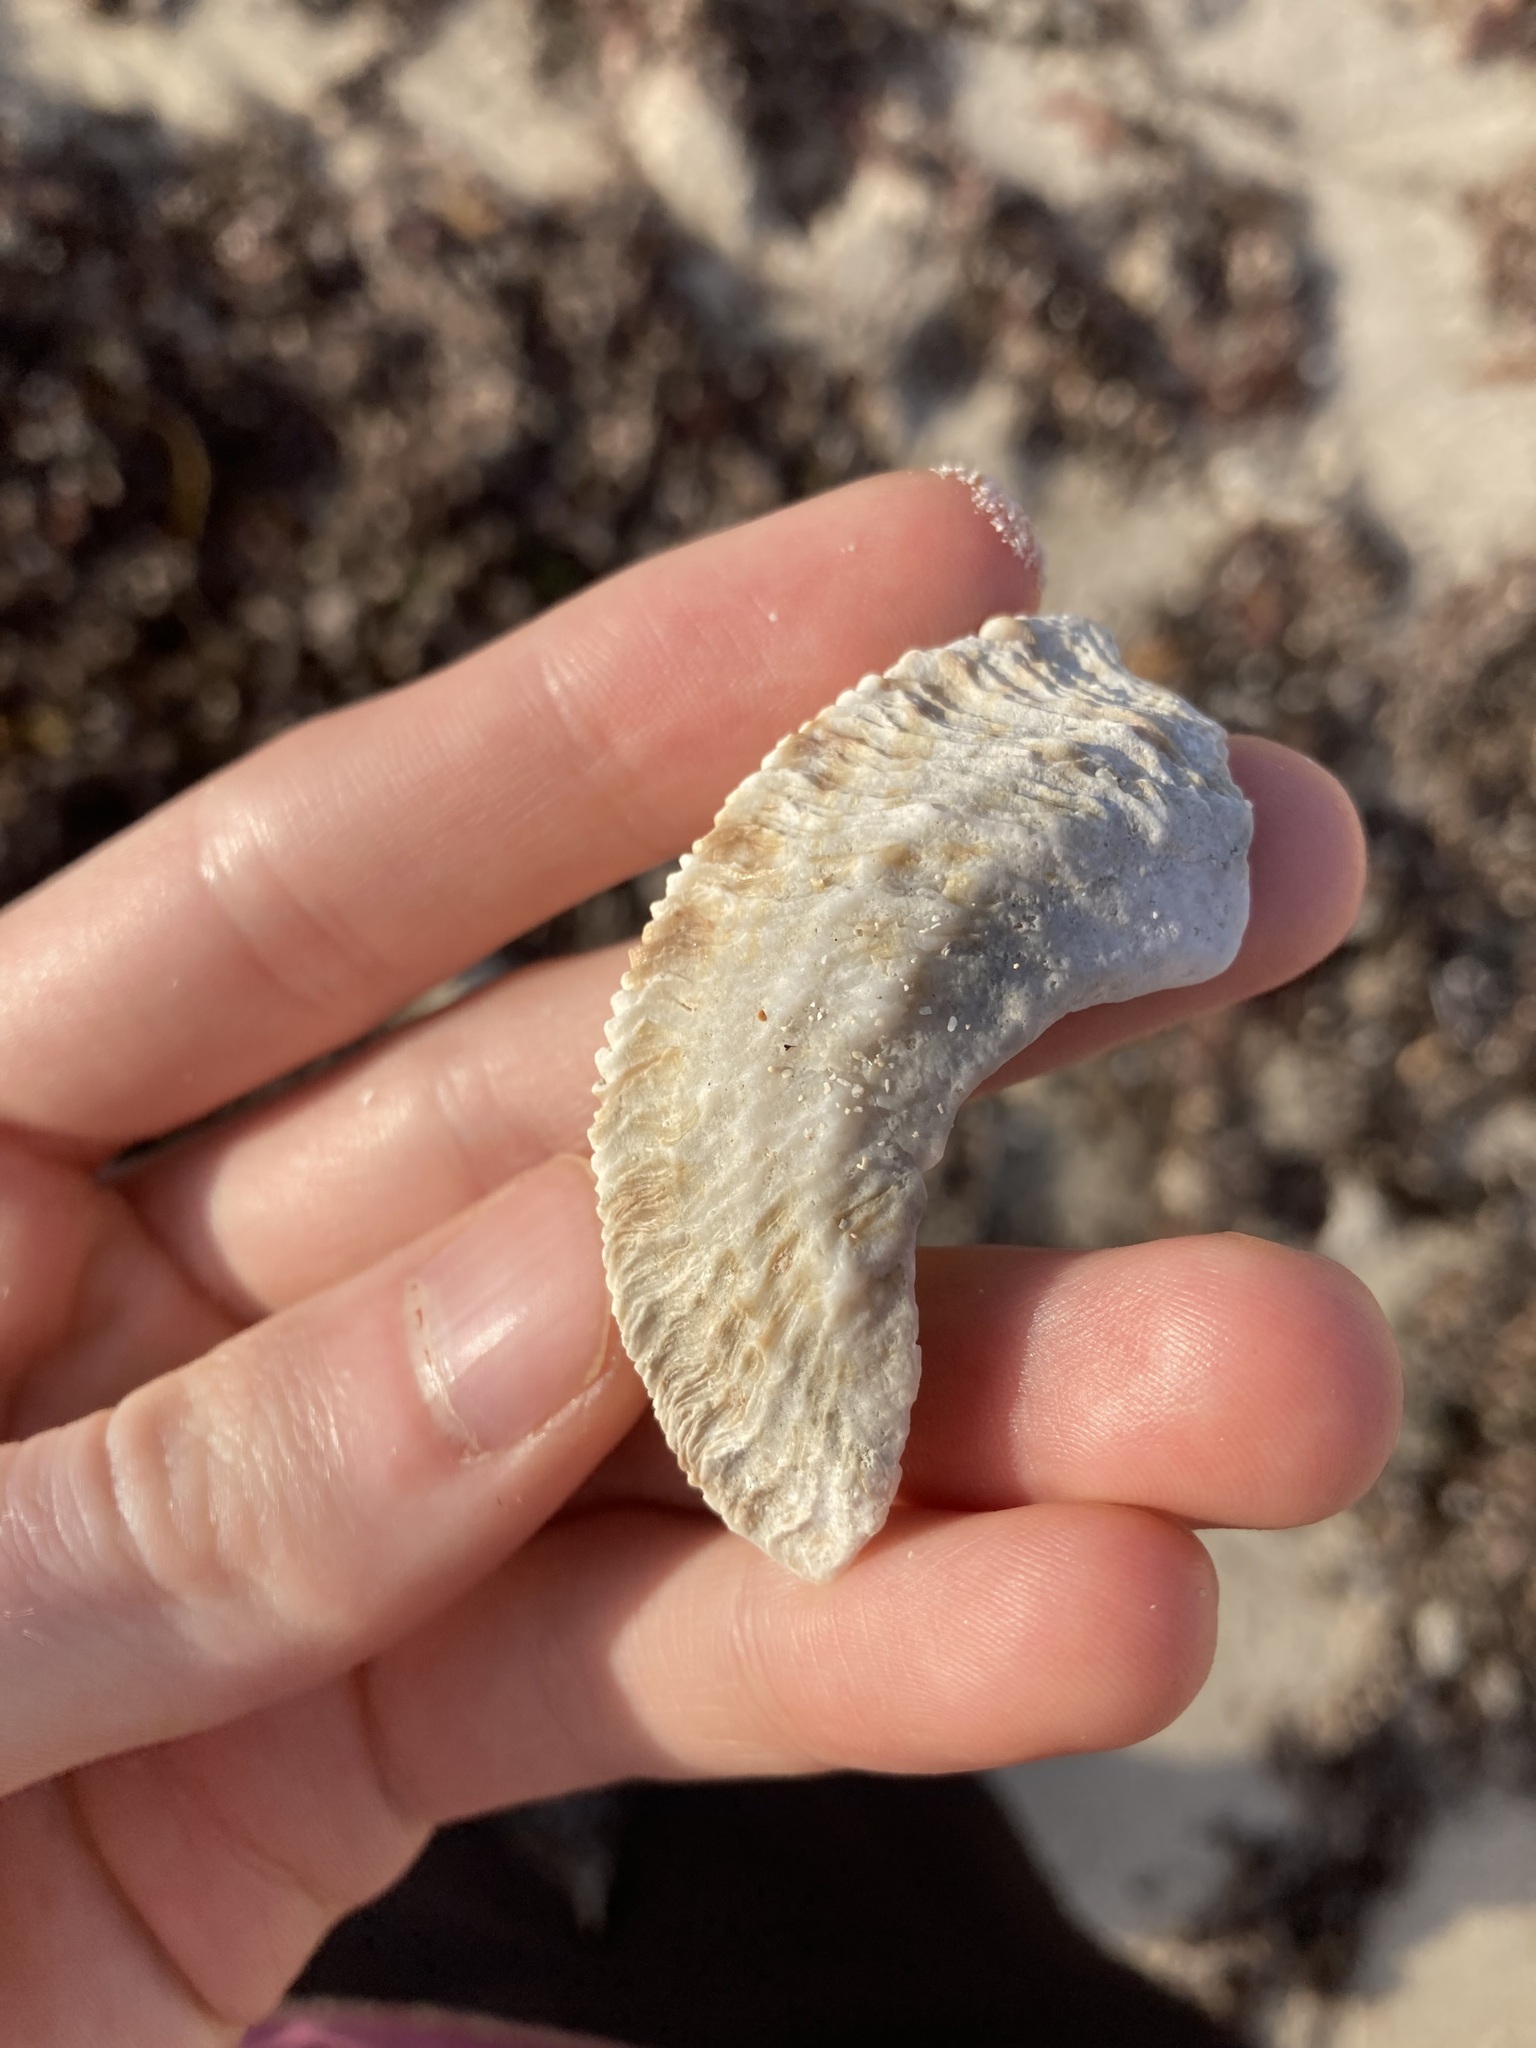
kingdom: Animalia
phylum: Mollusca
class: Gastropoda
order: Trochida
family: Turbinidae
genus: Lunella
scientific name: Lunella torquata
